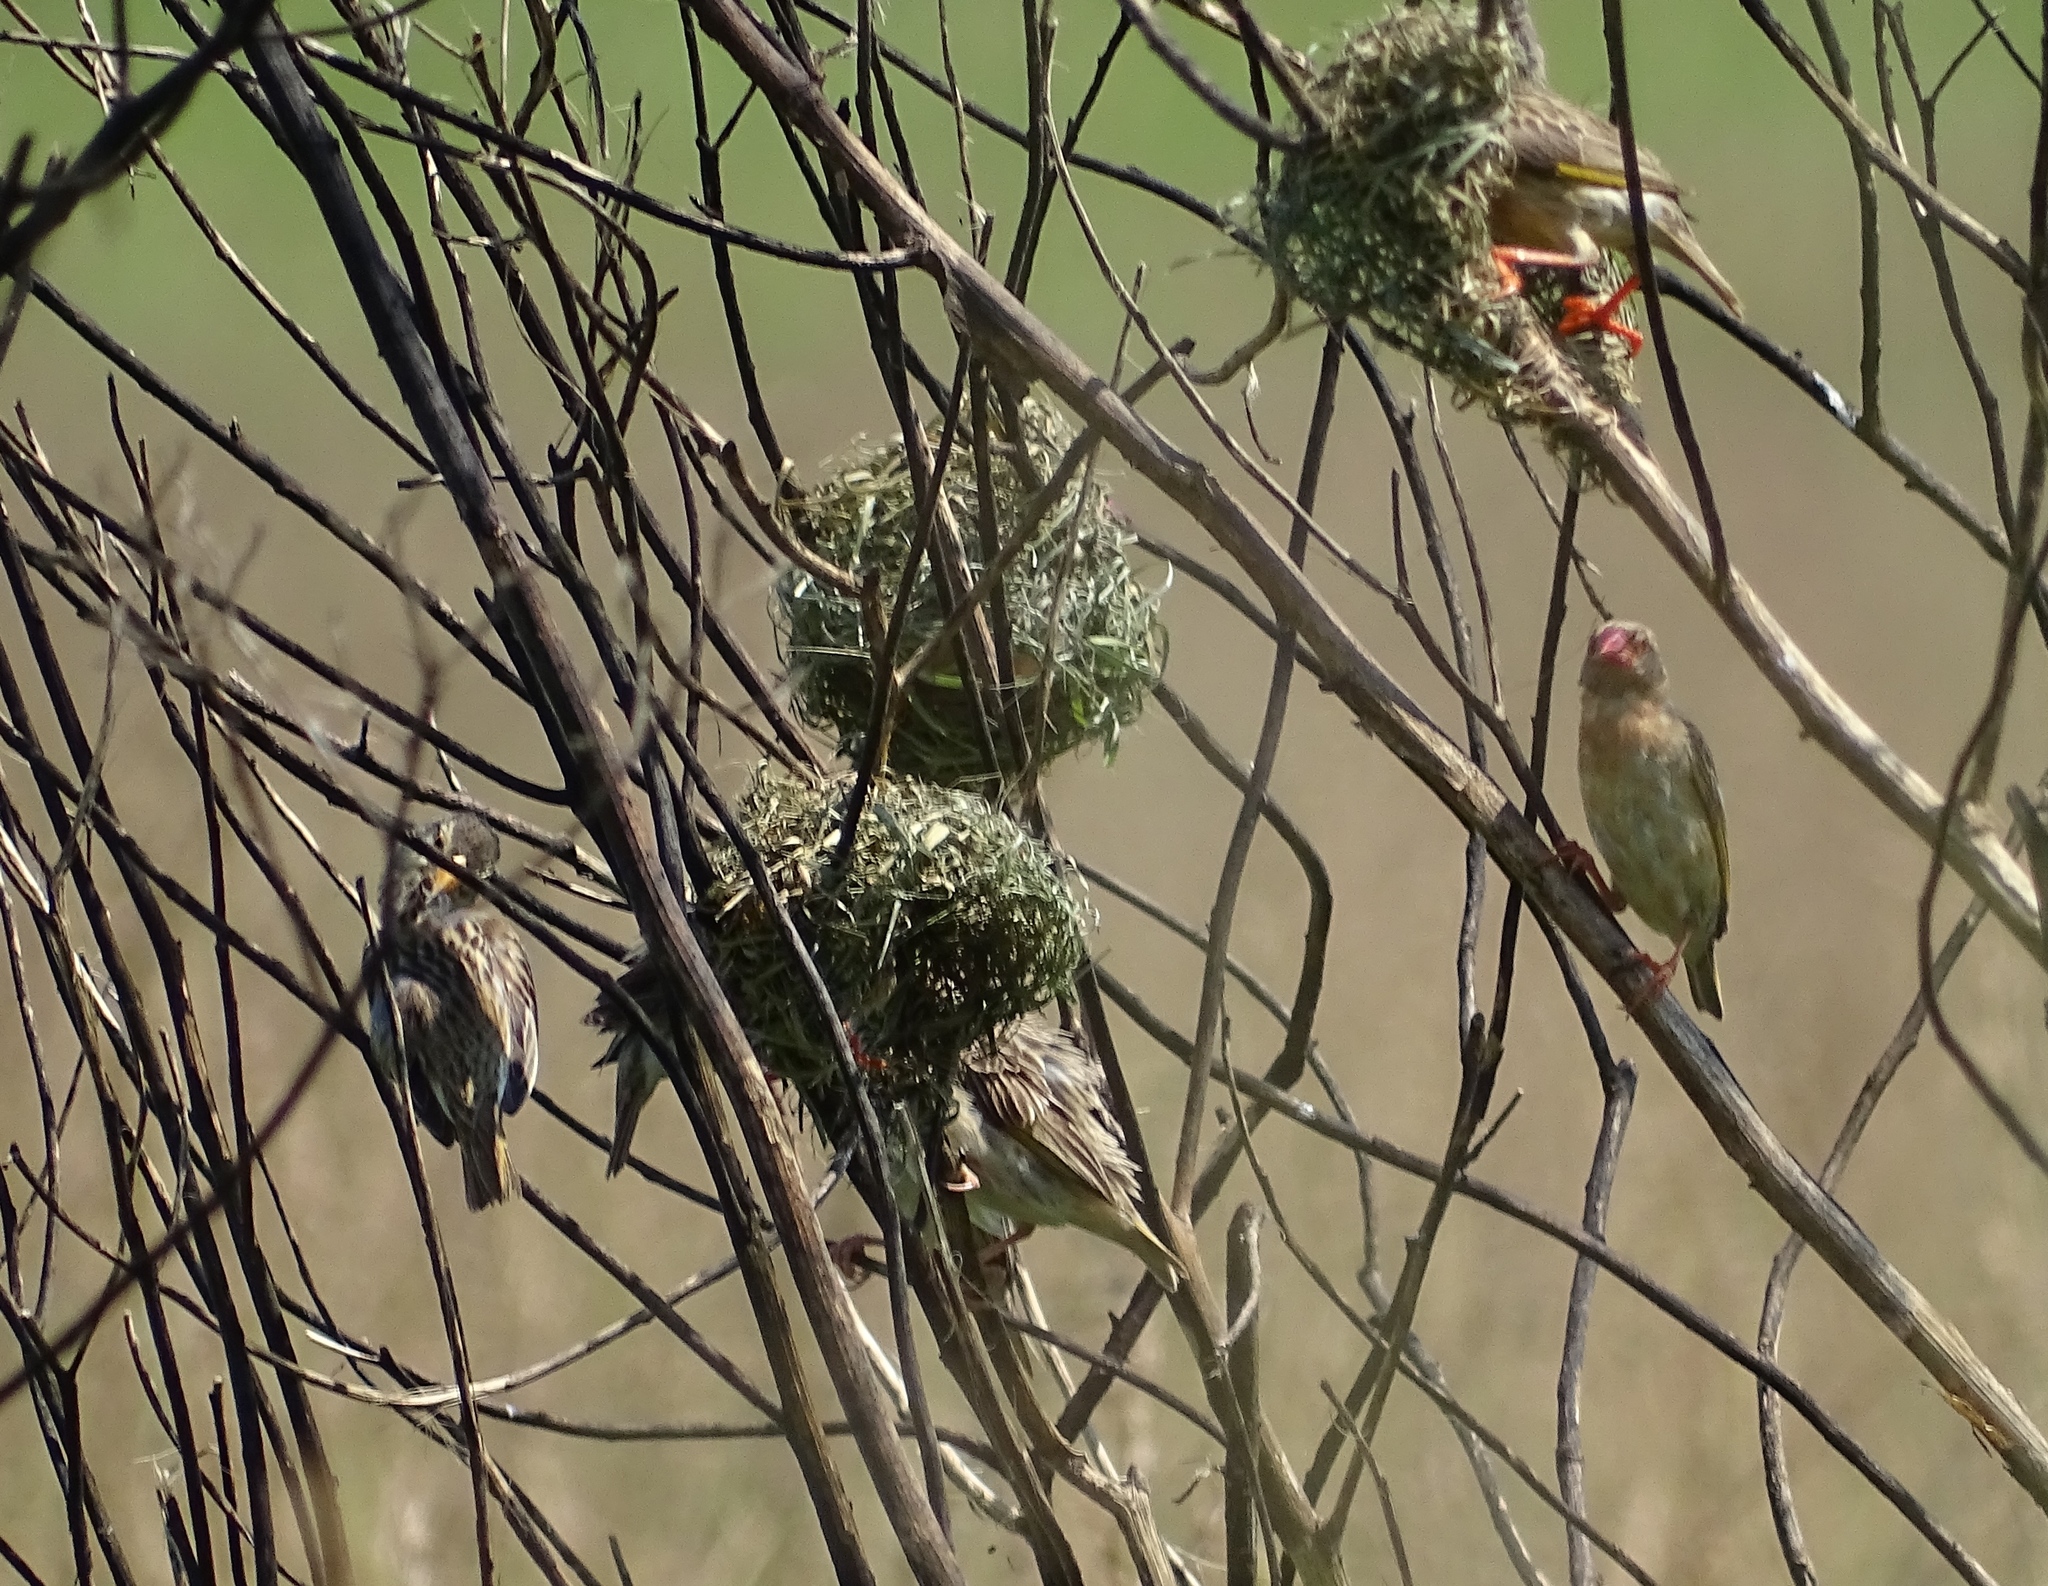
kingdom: Animalia
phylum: Chordata
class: Aves
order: Passeriformes
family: Ploceidae
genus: Quelea
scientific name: Quelea quelea
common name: Red-billed quelea
